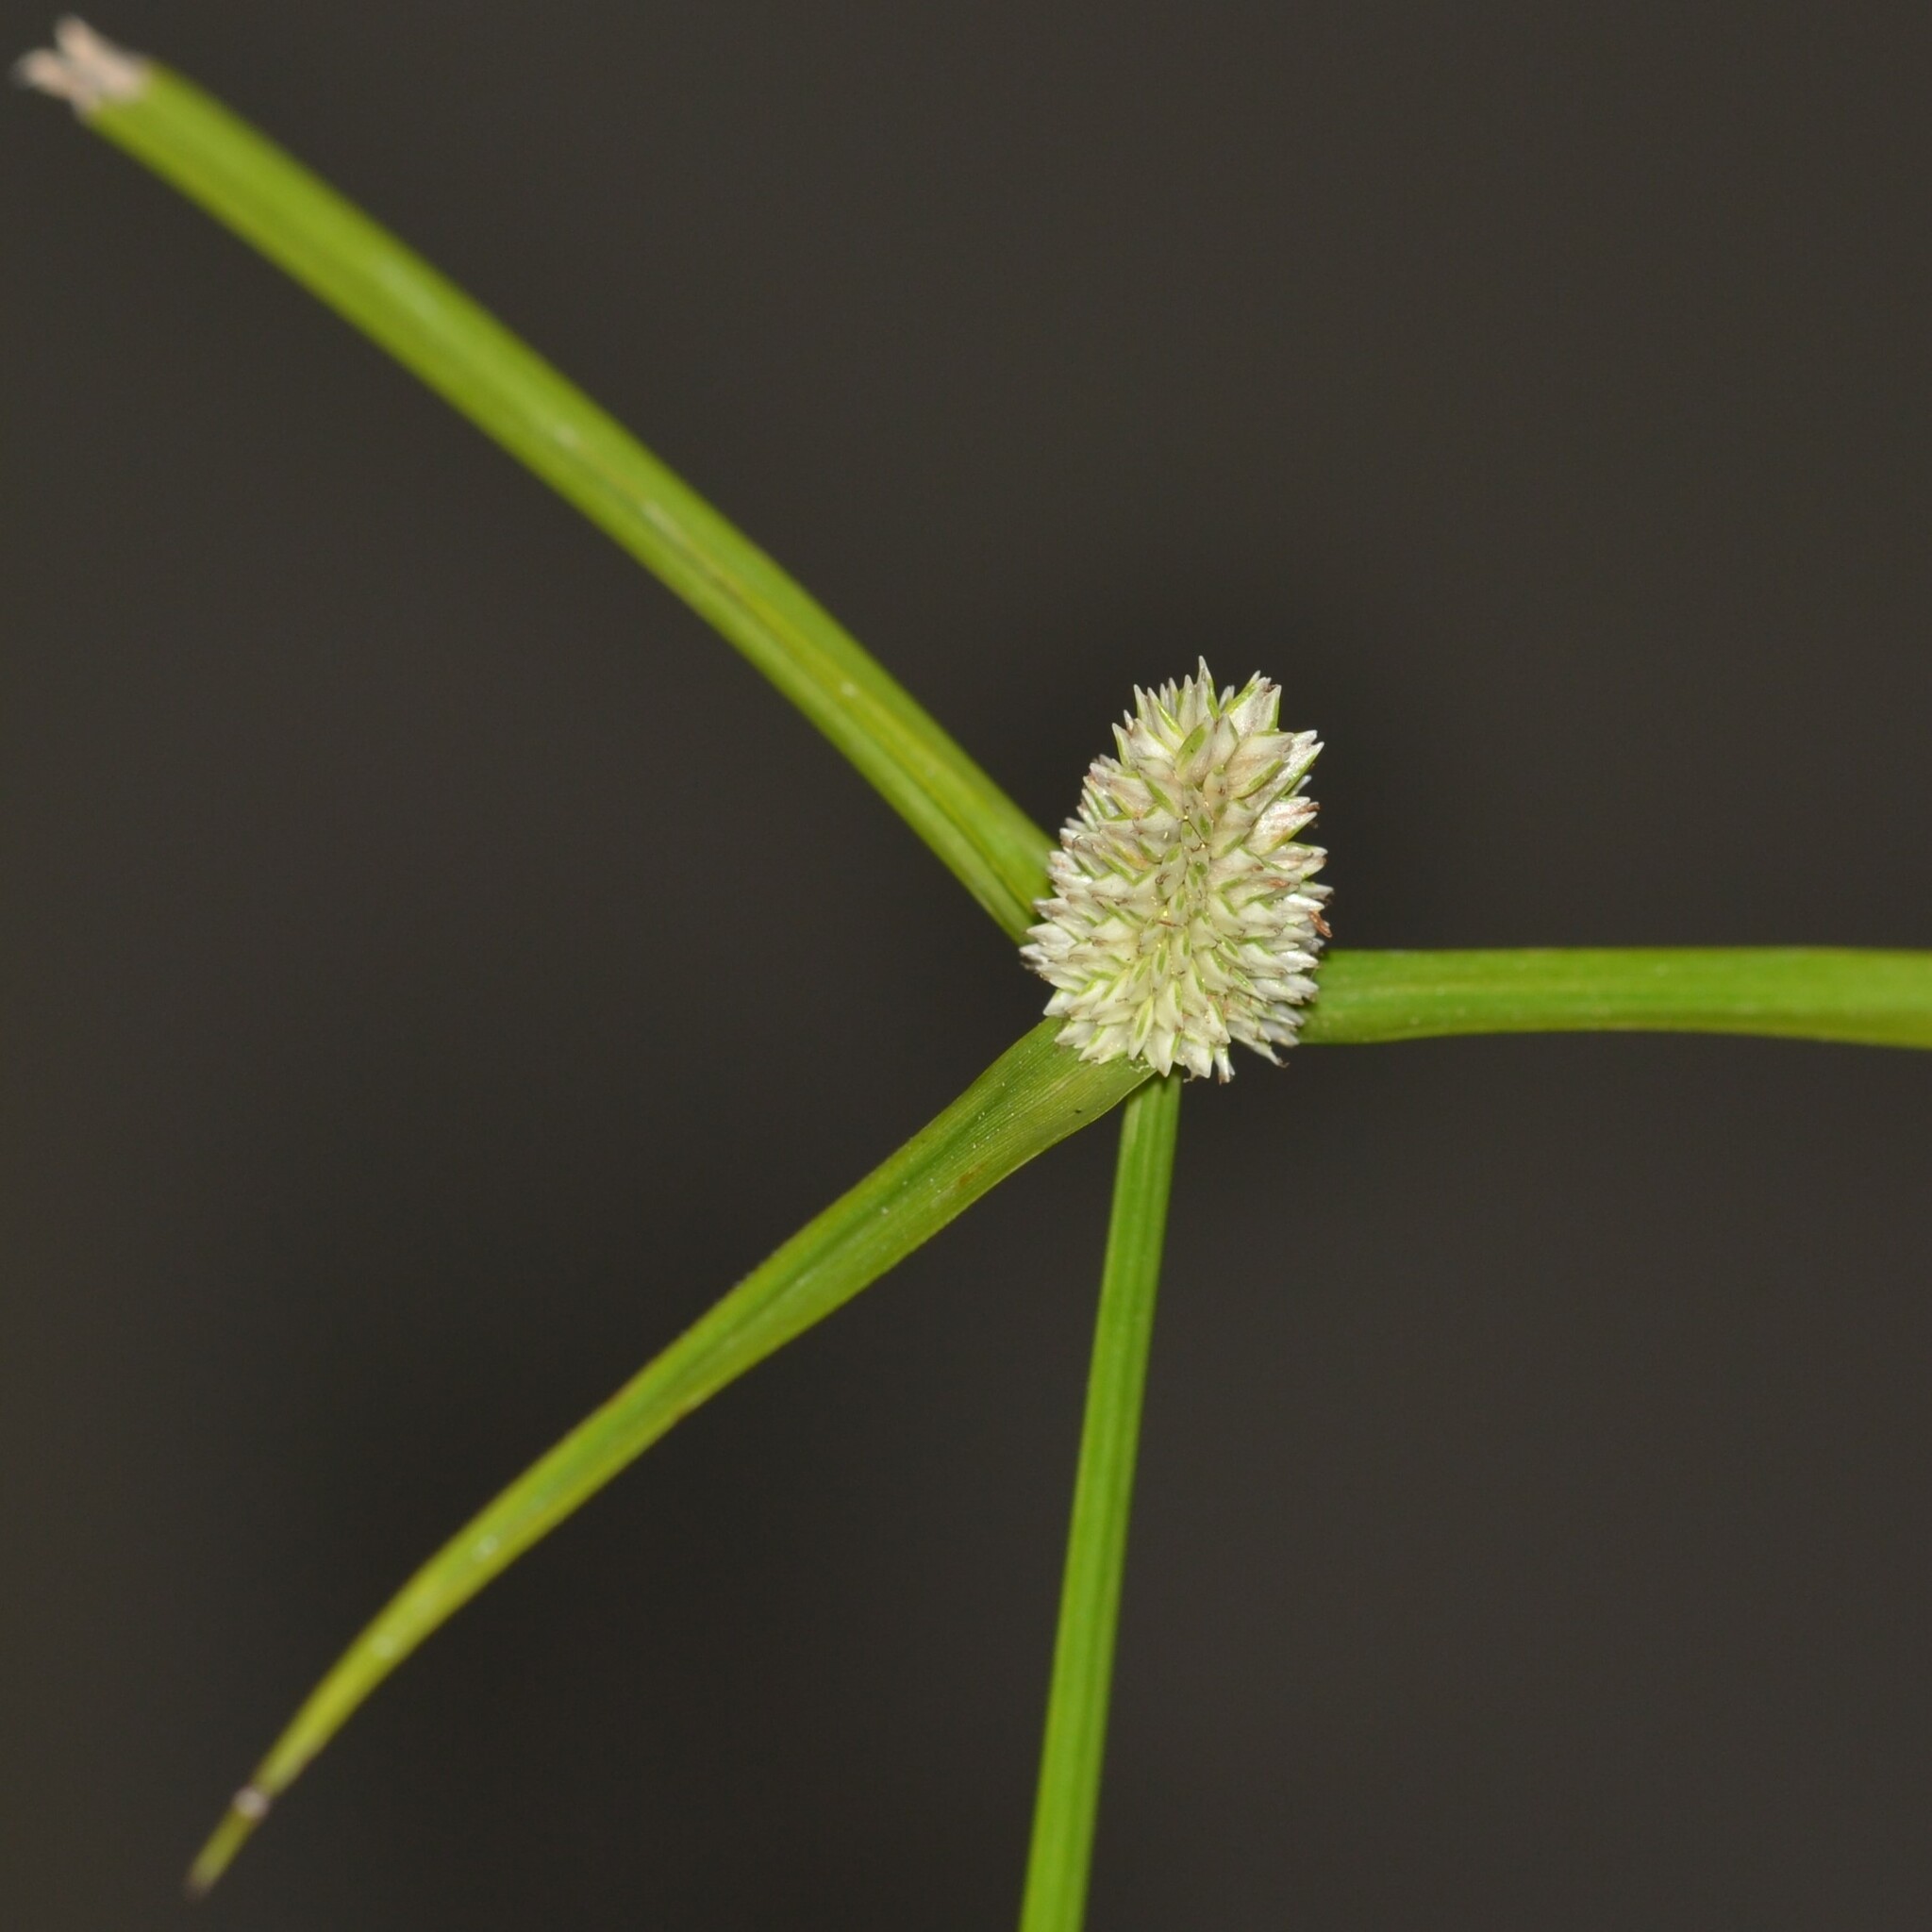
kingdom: Plantae
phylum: Tracheophyta
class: Liliopsida
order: Poales
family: Cyperaceae
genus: Cyperus
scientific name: Cyperus mindorensis
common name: Flatsedge
